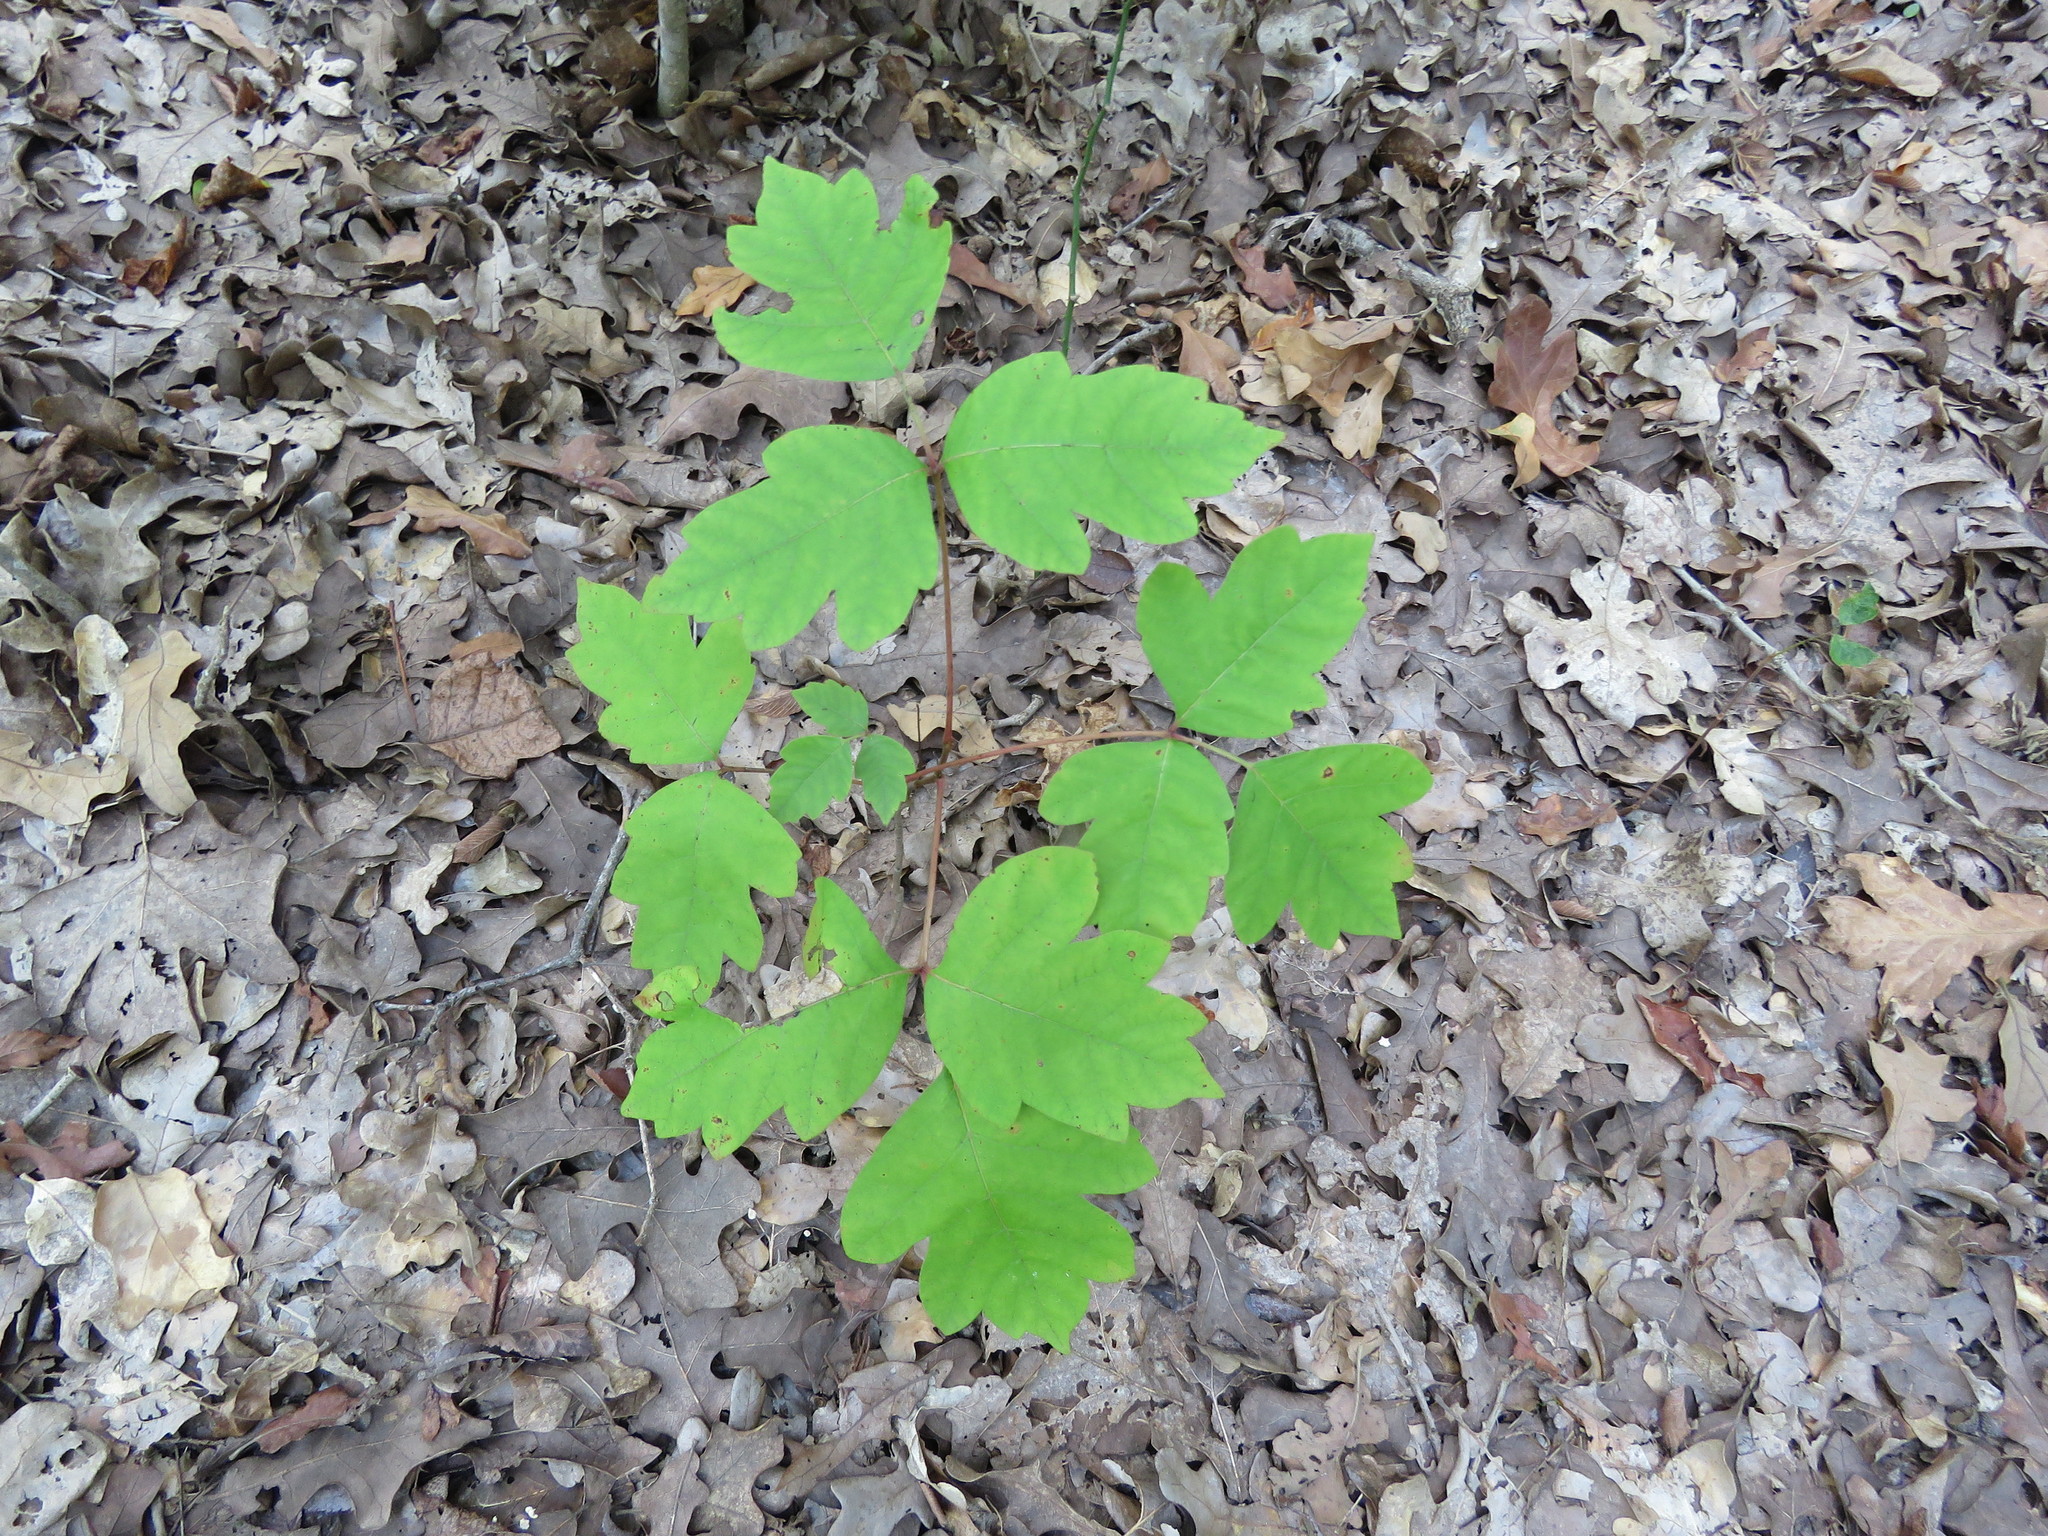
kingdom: Plantae
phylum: Tracheophyta
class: Magnoliopsida
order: Sapindales
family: Anacardiaceae
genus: Toxicodendron
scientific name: Toxicodendron radicans
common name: Poison ivy
